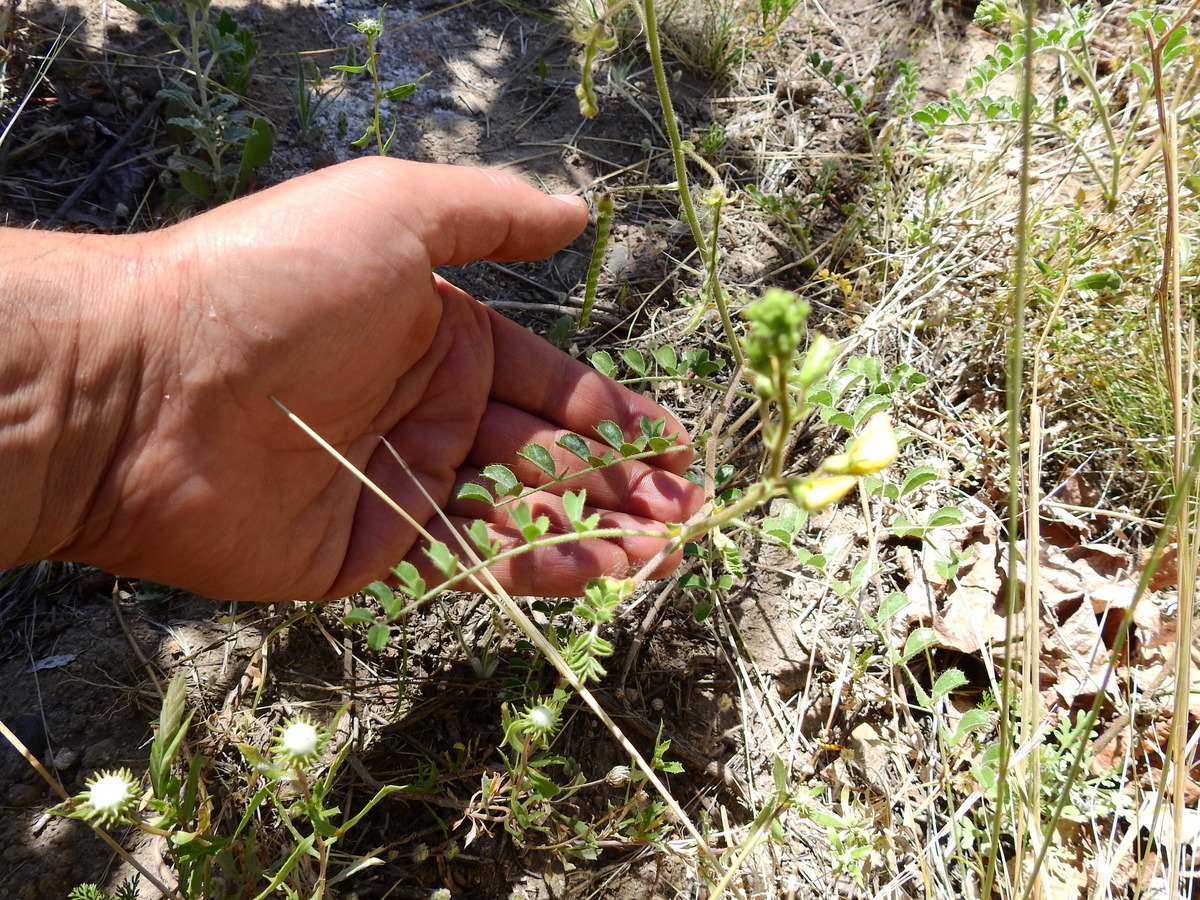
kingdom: Plantae
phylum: Tracheophyta
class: Magnoliopsida
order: Fabales
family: Fabaceae
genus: Adesmia
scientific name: Adesmia grandiflora
